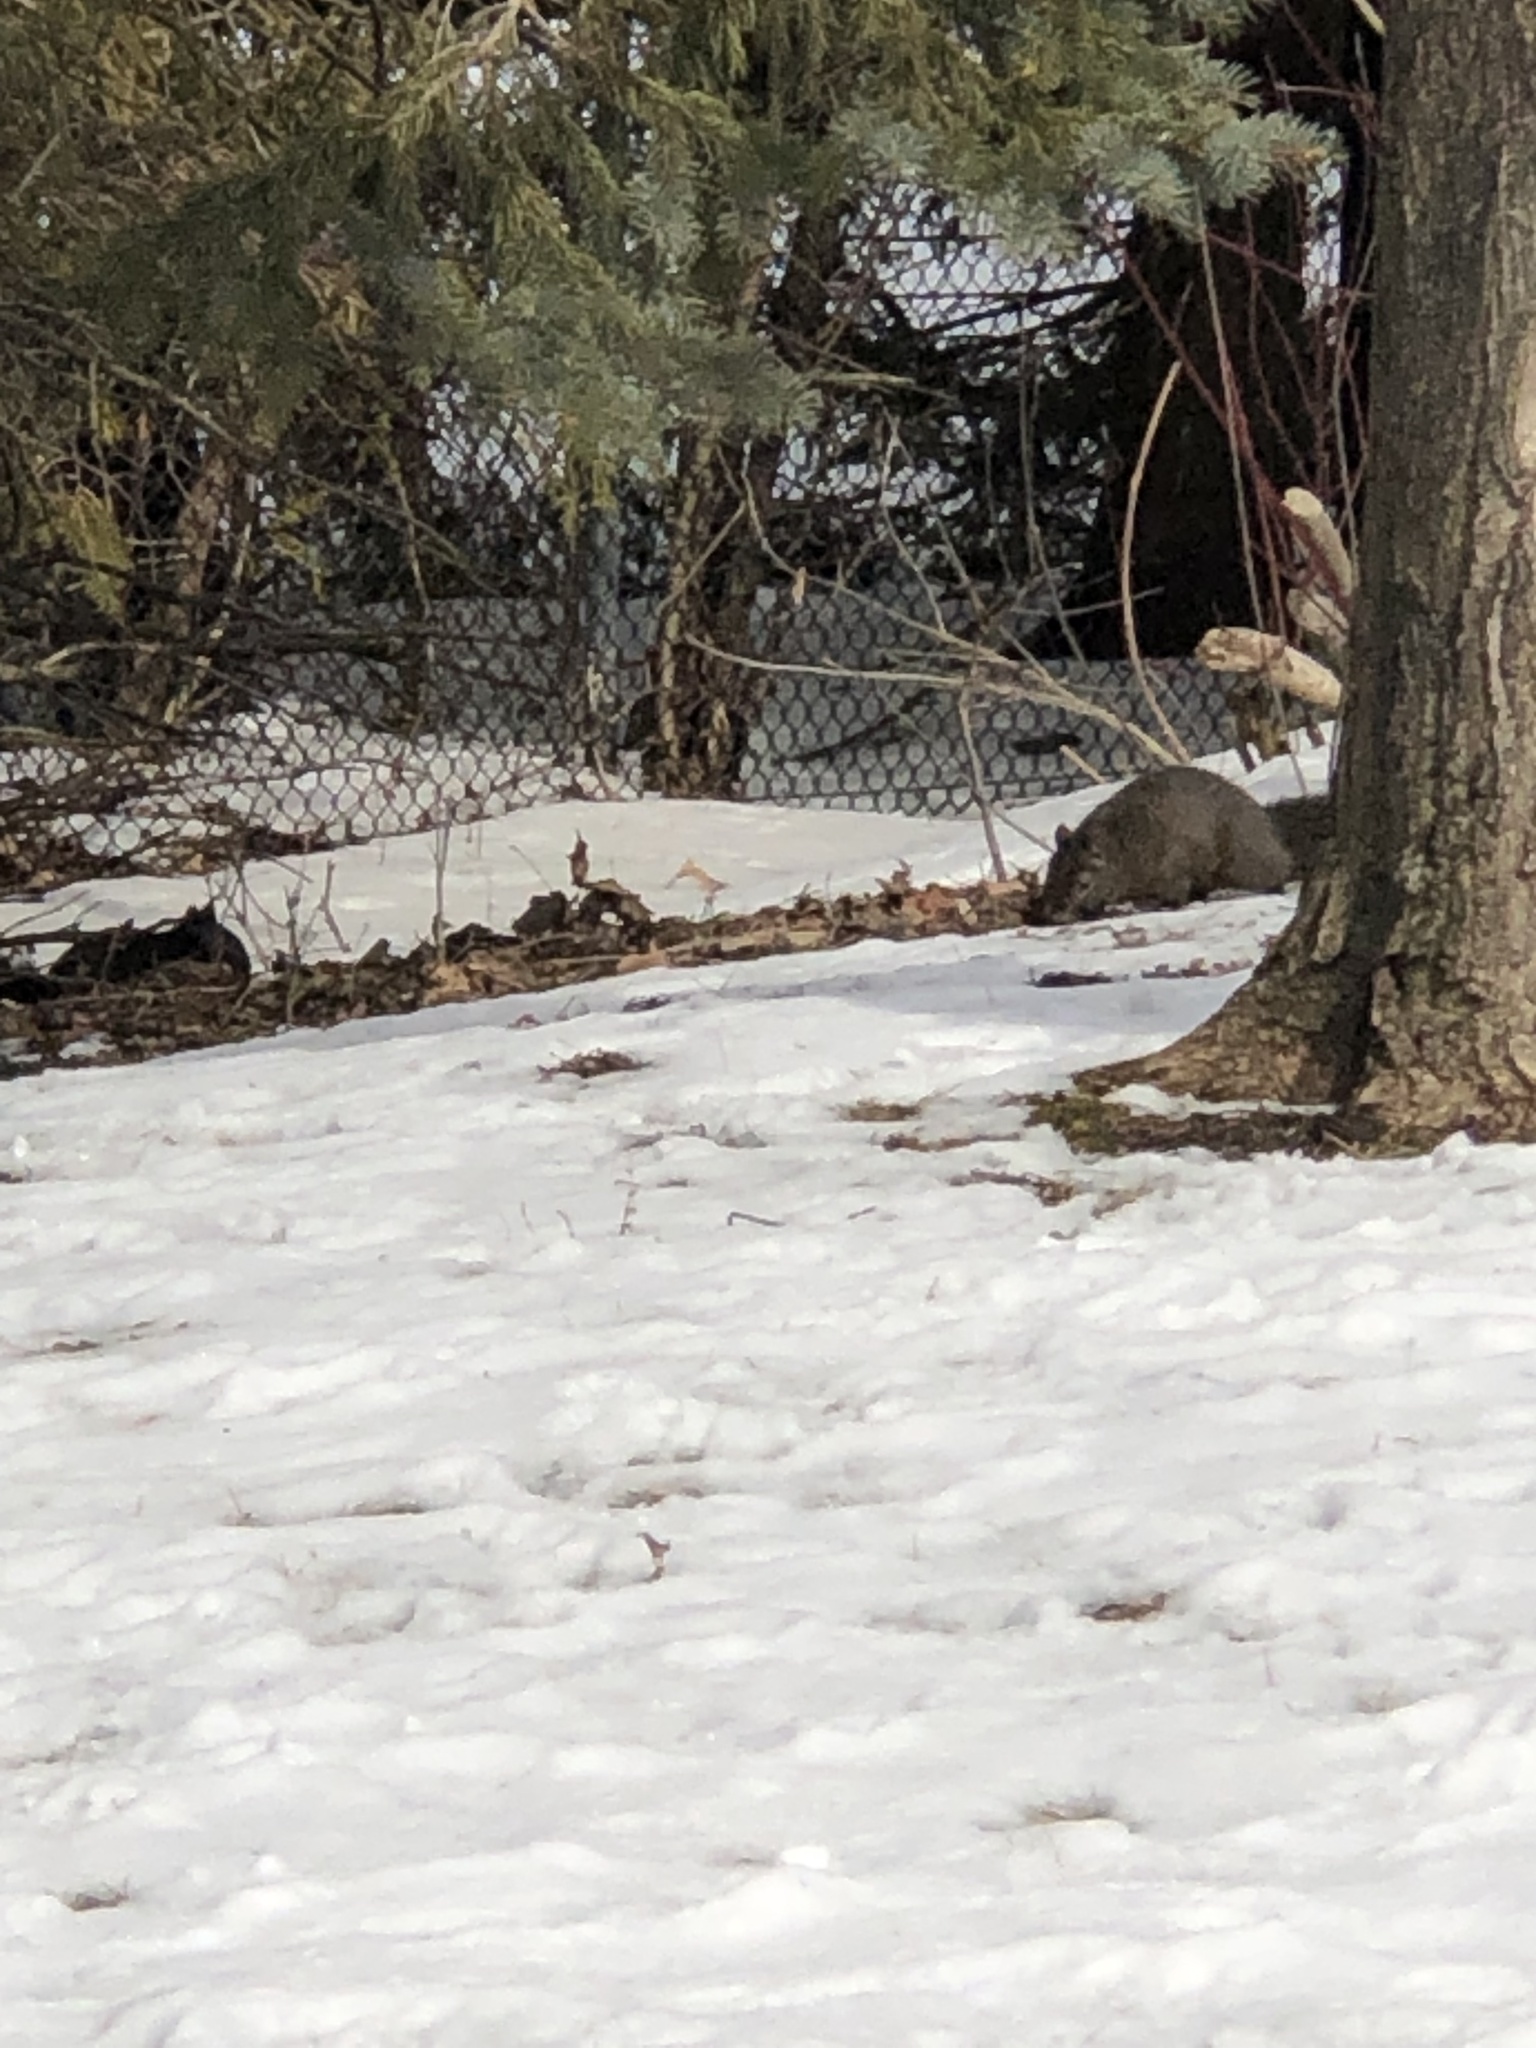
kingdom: Animalia
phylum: Chordata
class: Mammalia
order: Rodentia
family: Sciuridae
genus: Sciurus
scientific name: Sciurus carolinensis
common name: Eastern gray squirrel
